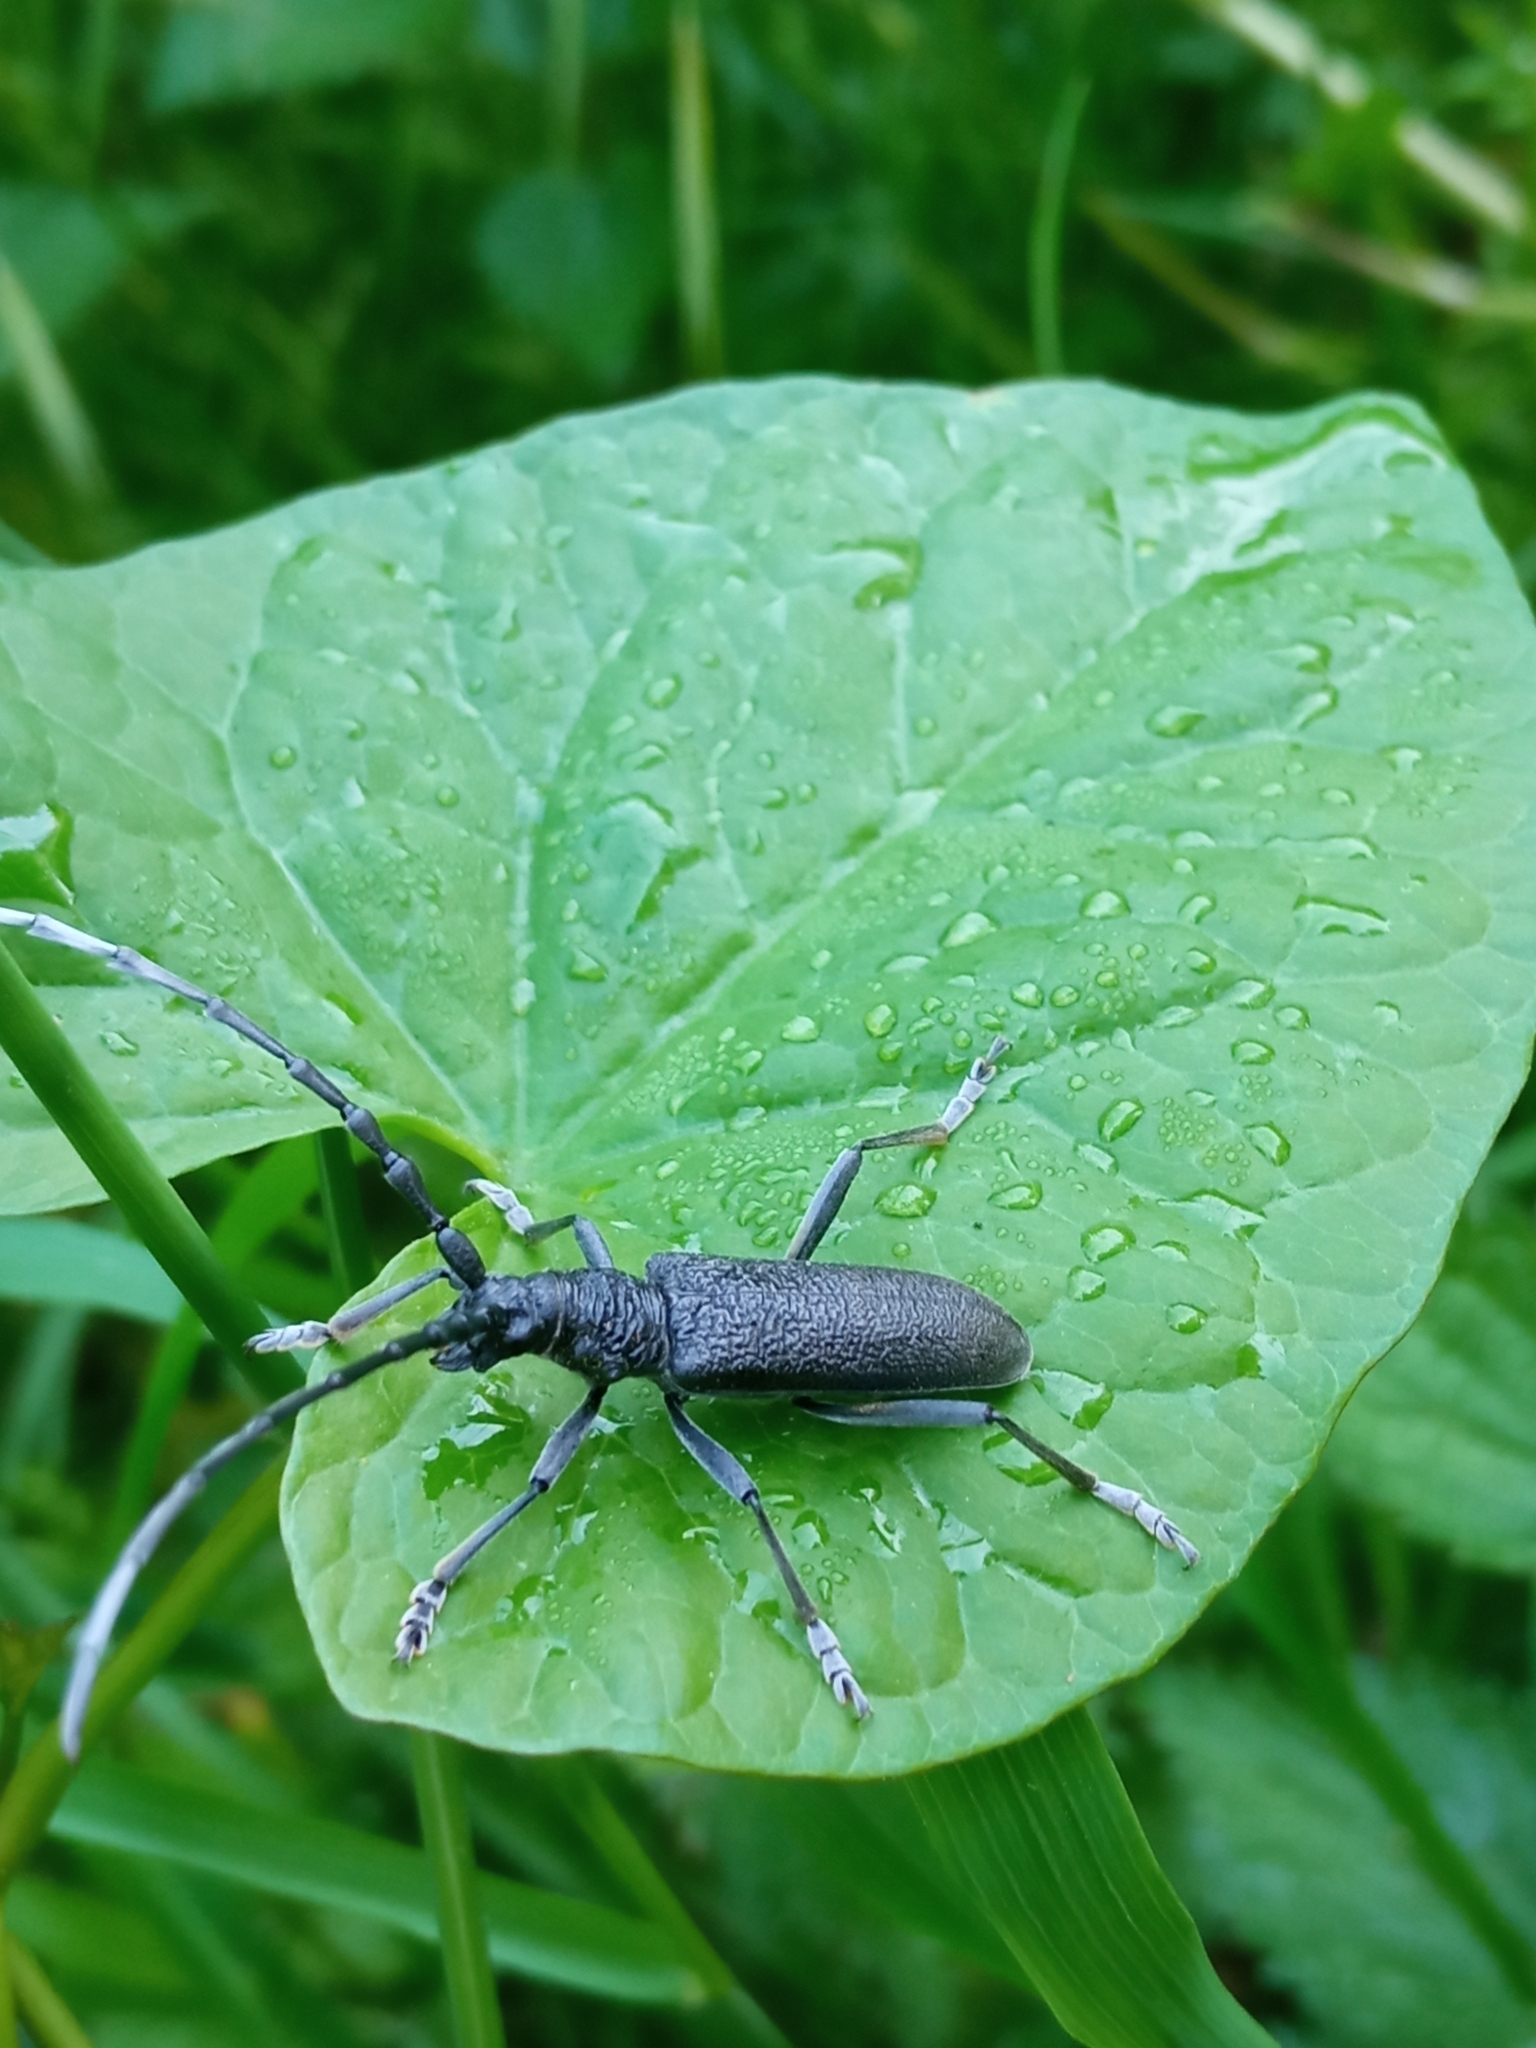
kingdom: Animalia
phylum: Arthropoda
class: Insecta
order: Coleoptera
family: Cerambycidae
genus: Cerambyx
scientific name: Cerambyx scopolii
